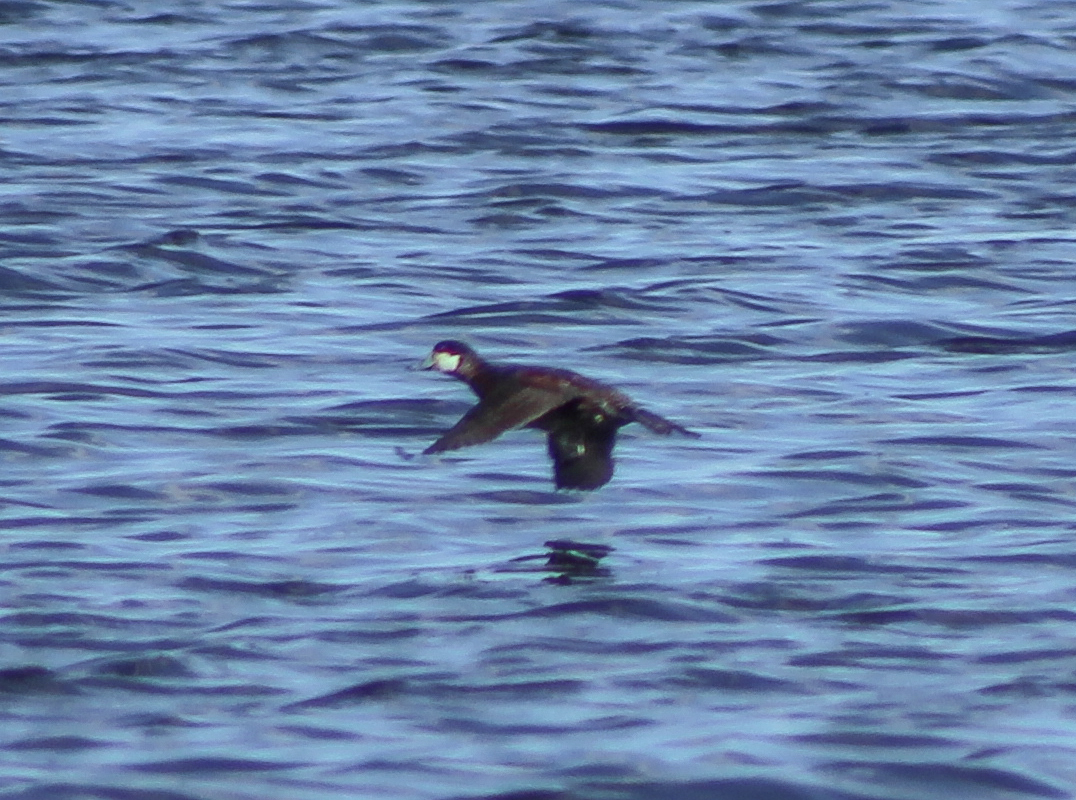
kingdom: Animalia
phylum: Chordata
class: Aves
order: Anseriformes
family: Anatidae
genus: Oxyura
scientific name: Oxyura jamaicensis
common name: Ruddy duck
